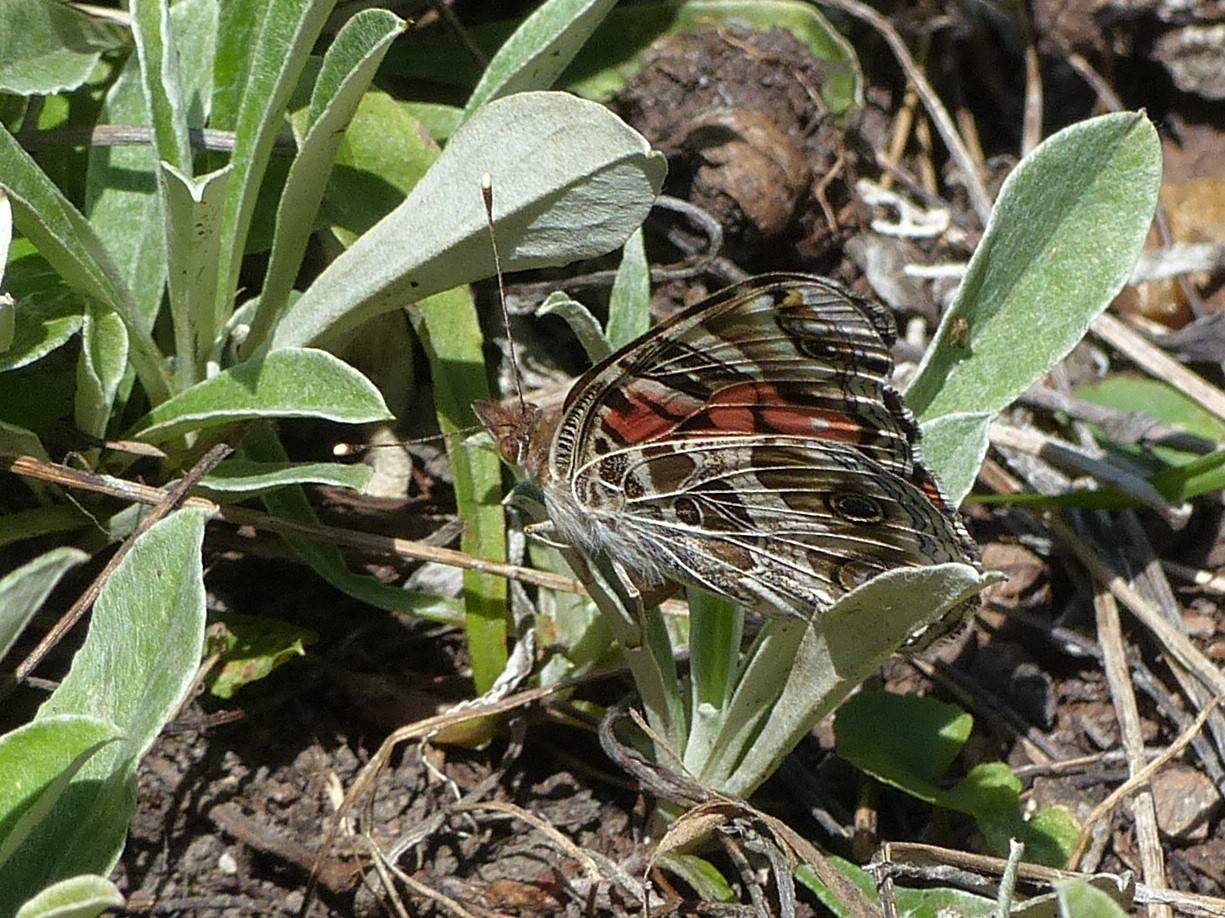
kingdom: Animalia
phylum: Arthropoda
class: Insecta
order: Lepidoptera
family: Nymphalidae
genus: Vanessa
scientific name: Vanessa virginiensis
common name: American lady
